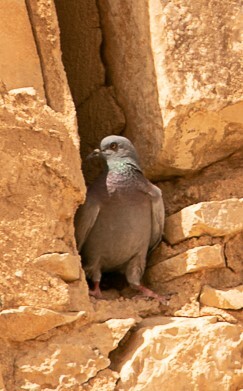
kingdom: Animalia
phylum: Chordata
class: Aves
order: Columbiformes
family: Columbidae
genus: Columba
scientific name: Columba livia
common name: Rock pigeon
